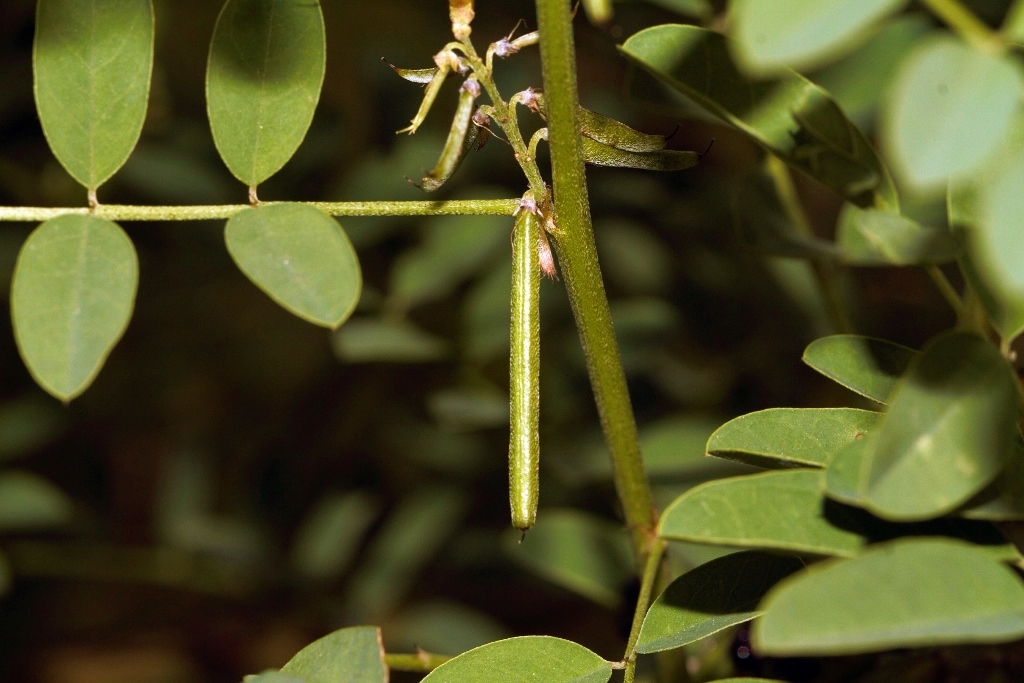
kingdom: Plantae
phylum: Tracheophyta
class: Magnoliopsida
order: Fabales
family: Fabaceae
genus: Indigofera
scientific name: Indigofera arrecta
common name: Bengal indigo
